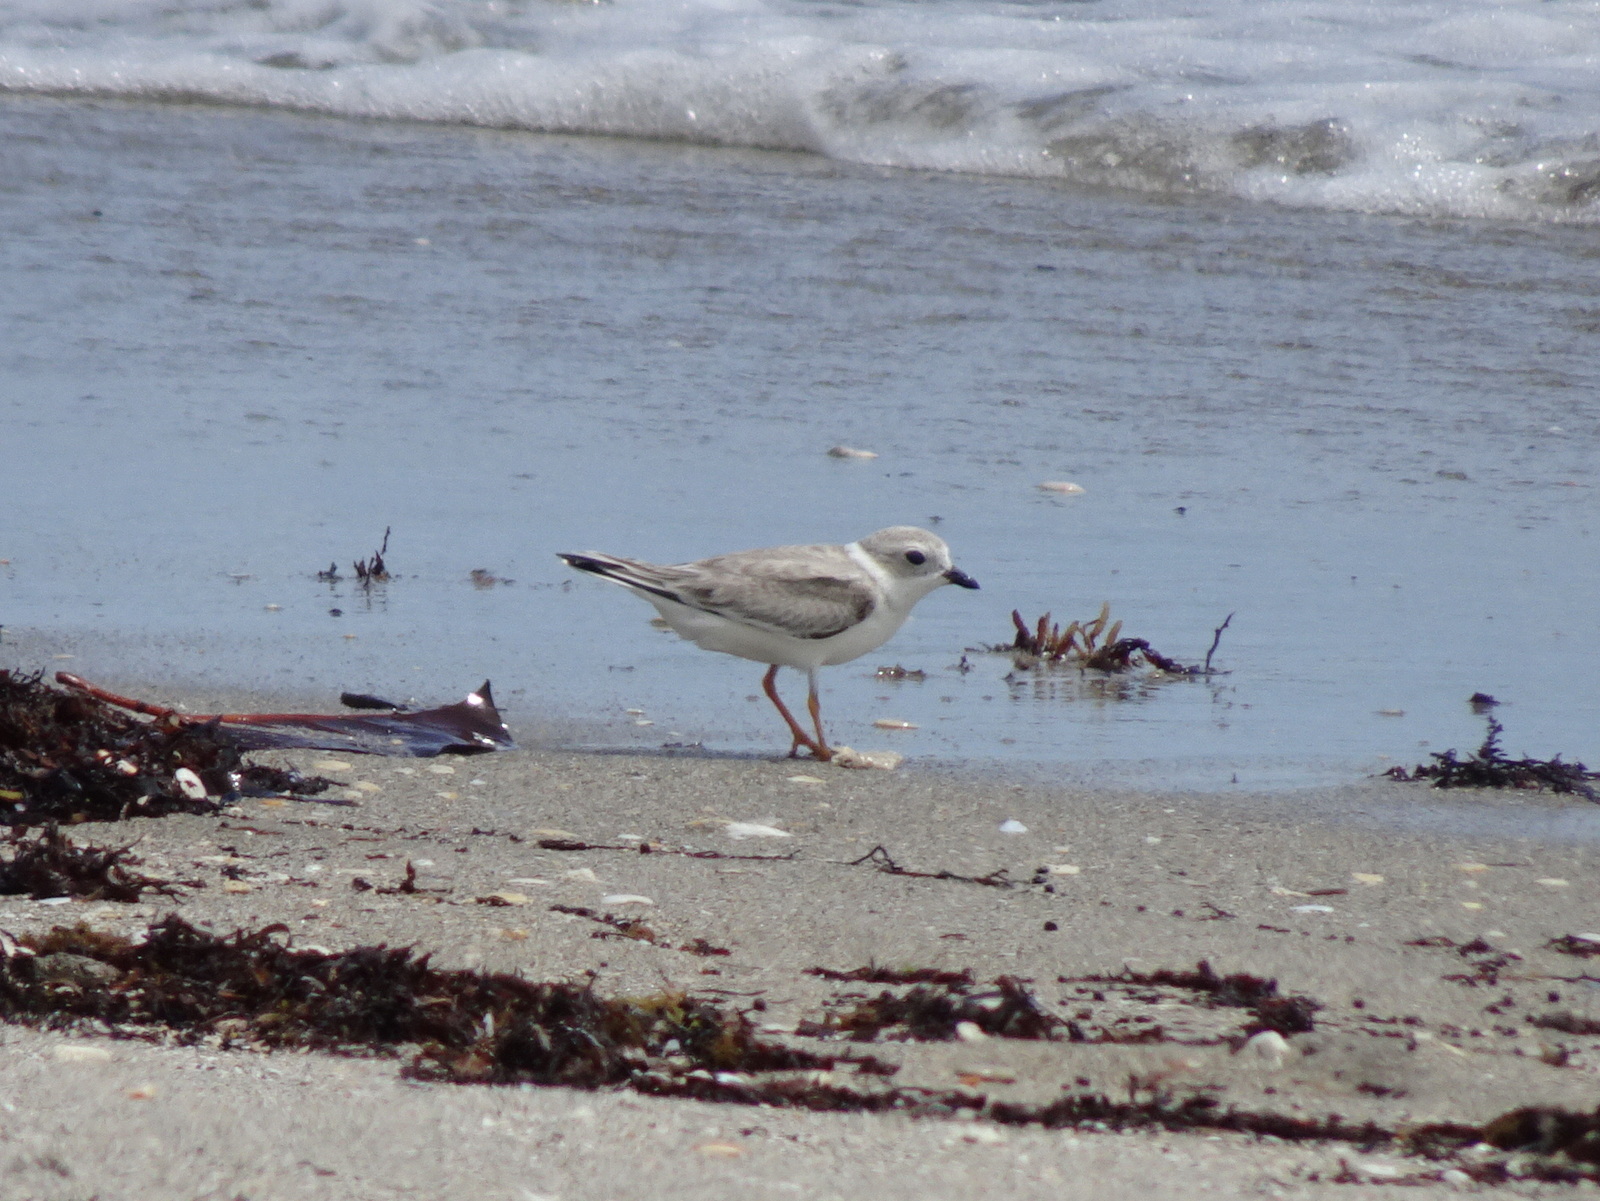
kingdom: Animalia
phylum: Chordata
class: Aves
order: Charadriiformes
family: Charadriidae
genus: Charadrius
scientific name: Charadrius melodus
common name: Piping plover
